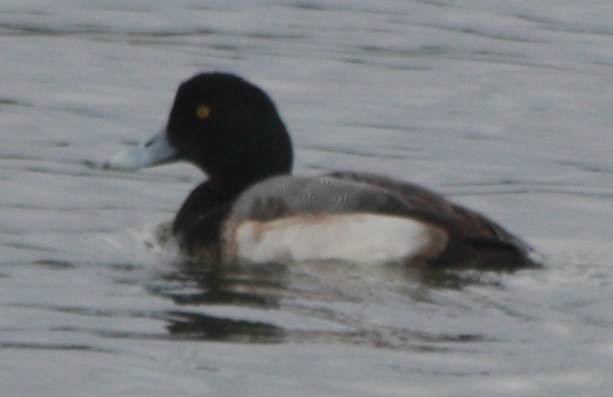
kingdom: Animalia
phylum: Chordata
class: Aves
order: Anseriformes
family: Anatidae
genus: Aythya
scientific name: Aythya marila
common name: Greater scaup
